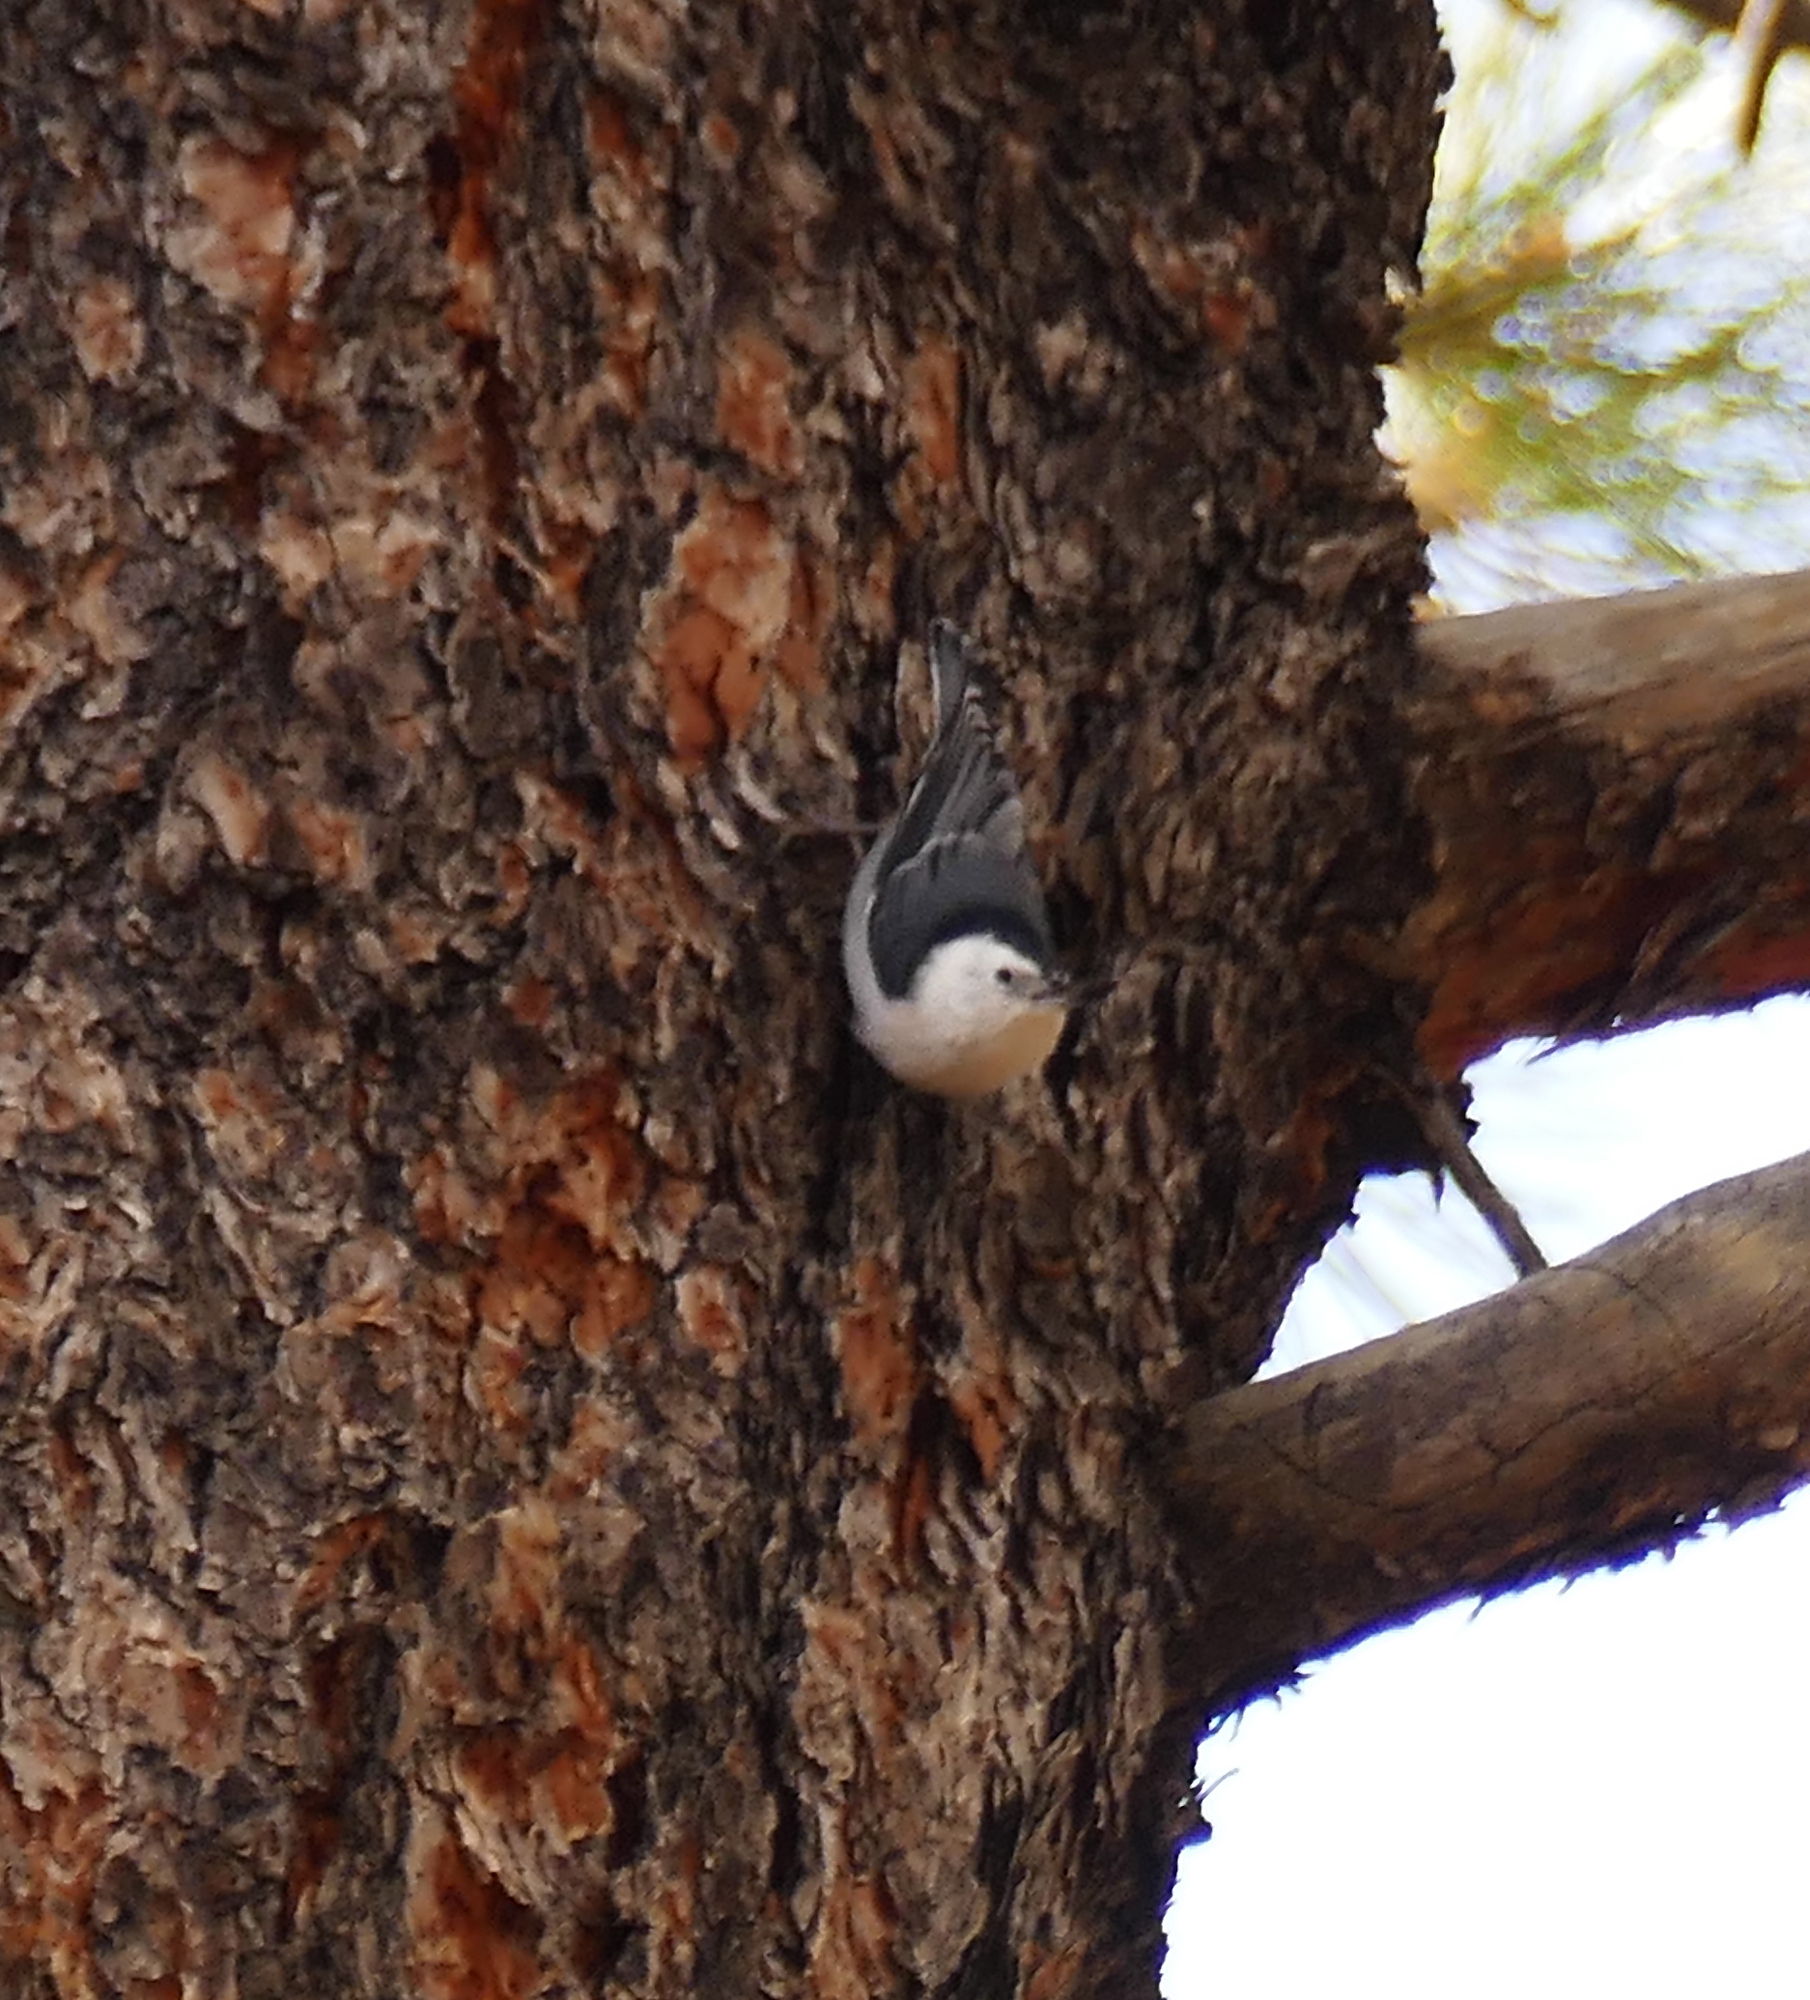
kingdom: Animalia
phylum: Chordata
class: Aves
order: Passeriformes
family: Sittidae
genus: Sitta
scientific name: Sitta carolinensis
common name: White-breasted nuthatch
